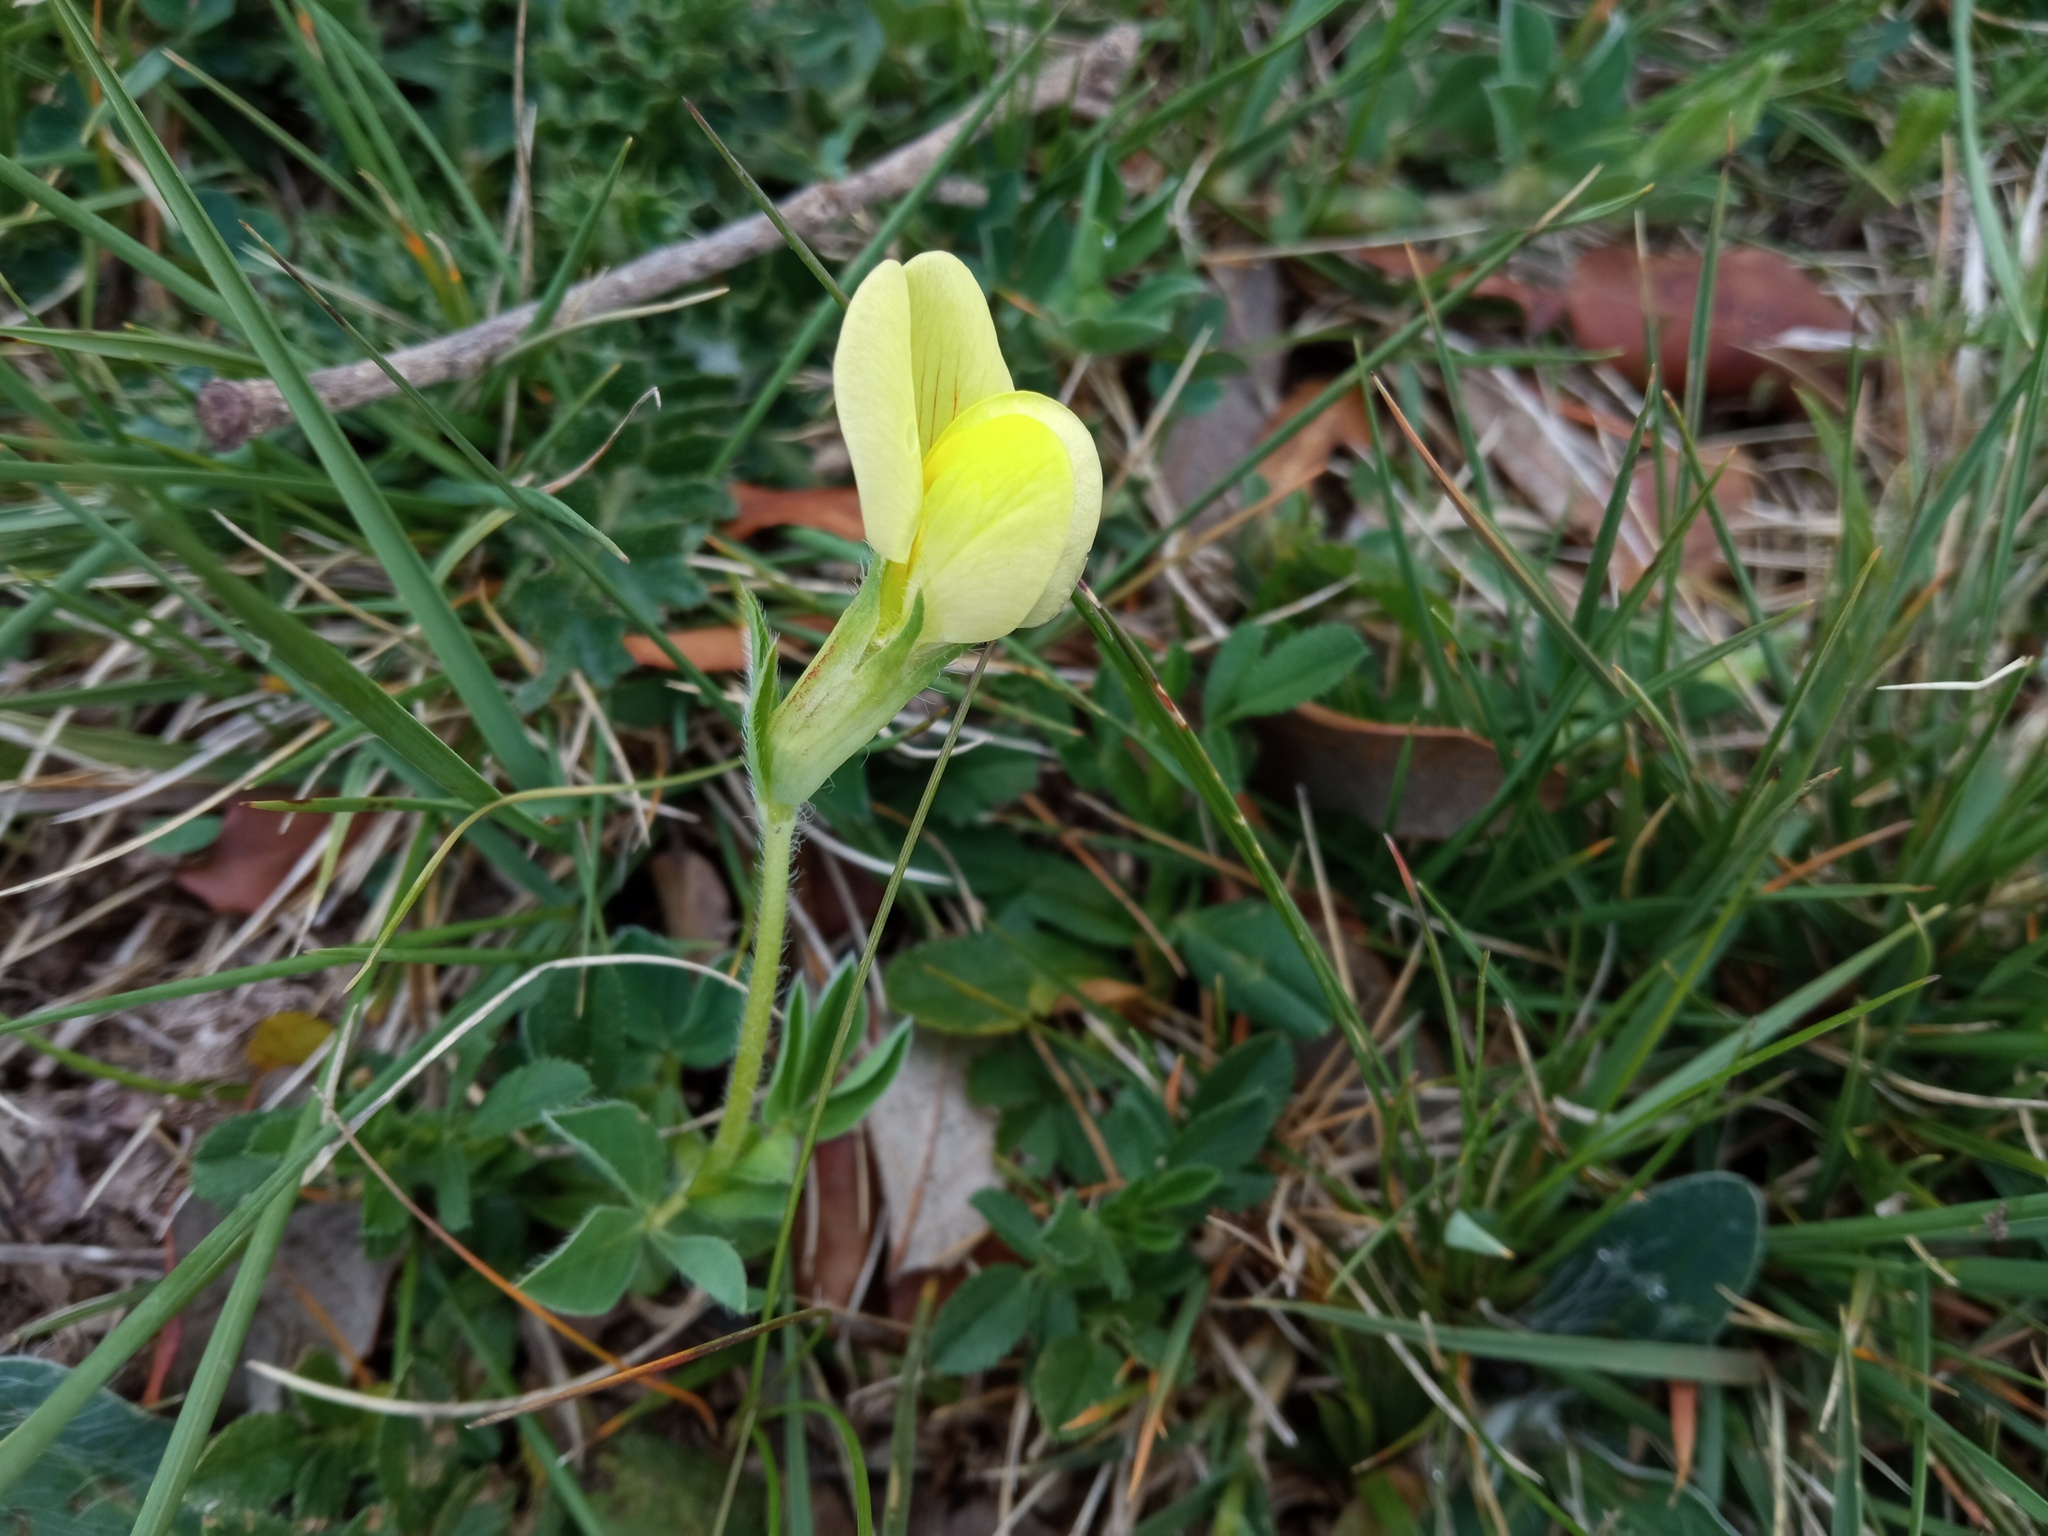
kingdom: Plantae
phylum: Tracheophyta
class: Magnoliopsida
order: Fabales
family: Fabaceae
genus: Lotus
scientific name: Lotus maritimus
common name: Dragon's-teeth
